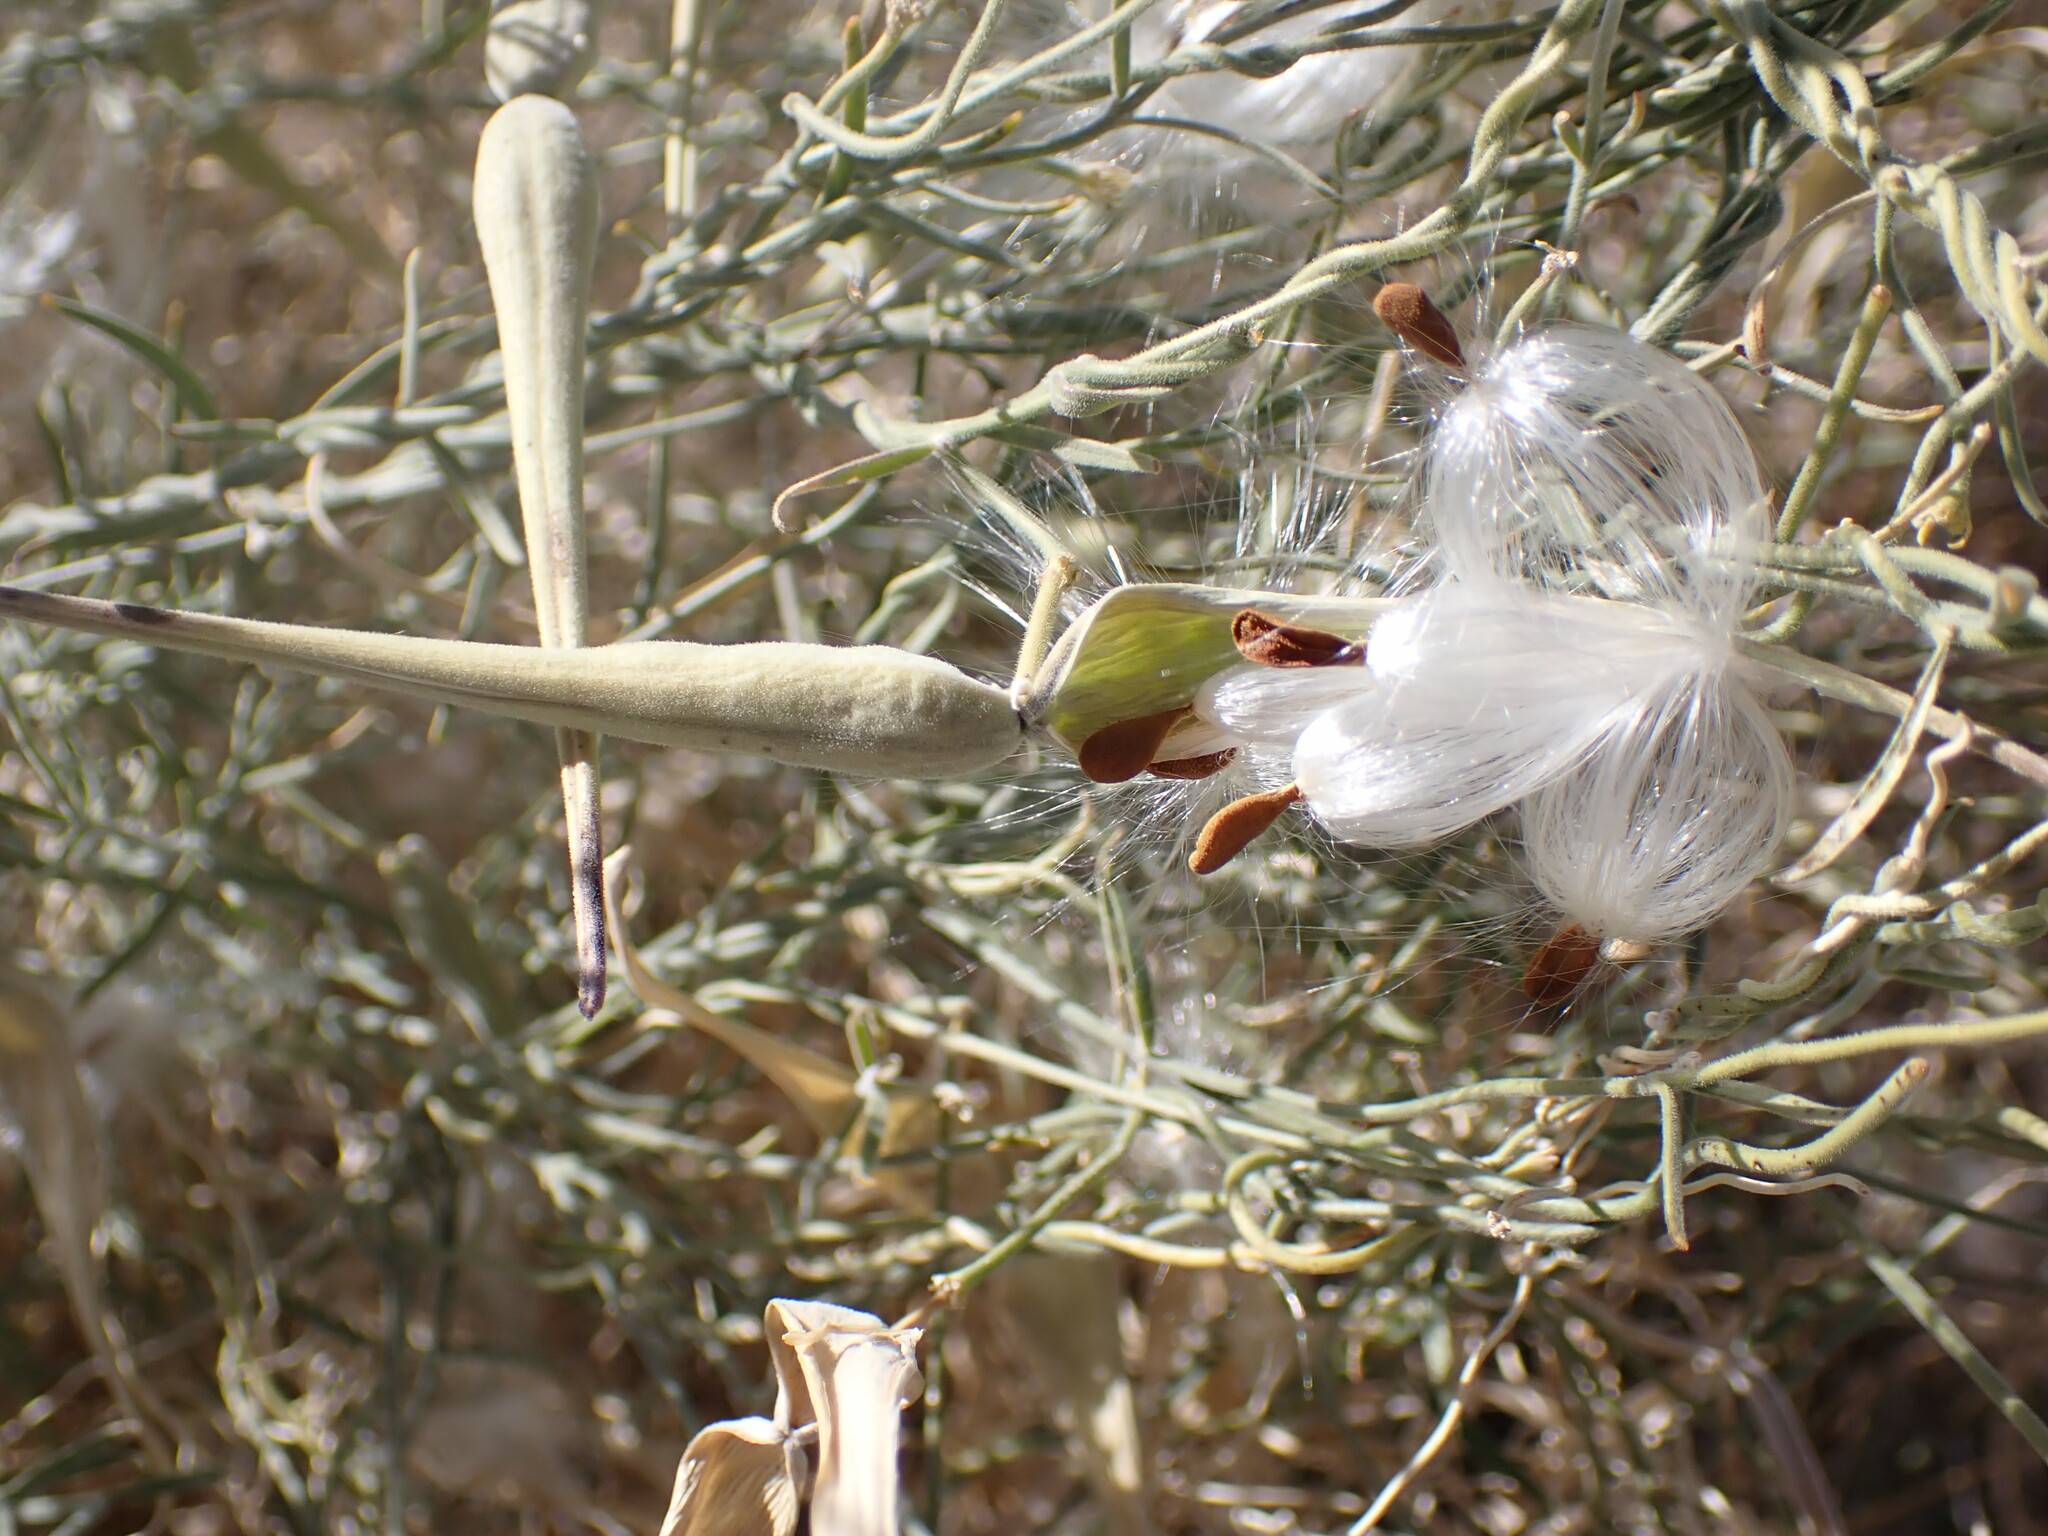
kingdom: Plantae
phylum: Tracheophyta
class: Magnoliopsida
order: Gentianales
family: Apocynaceae
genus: Funastrum
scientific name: Funastrum hirtellum
